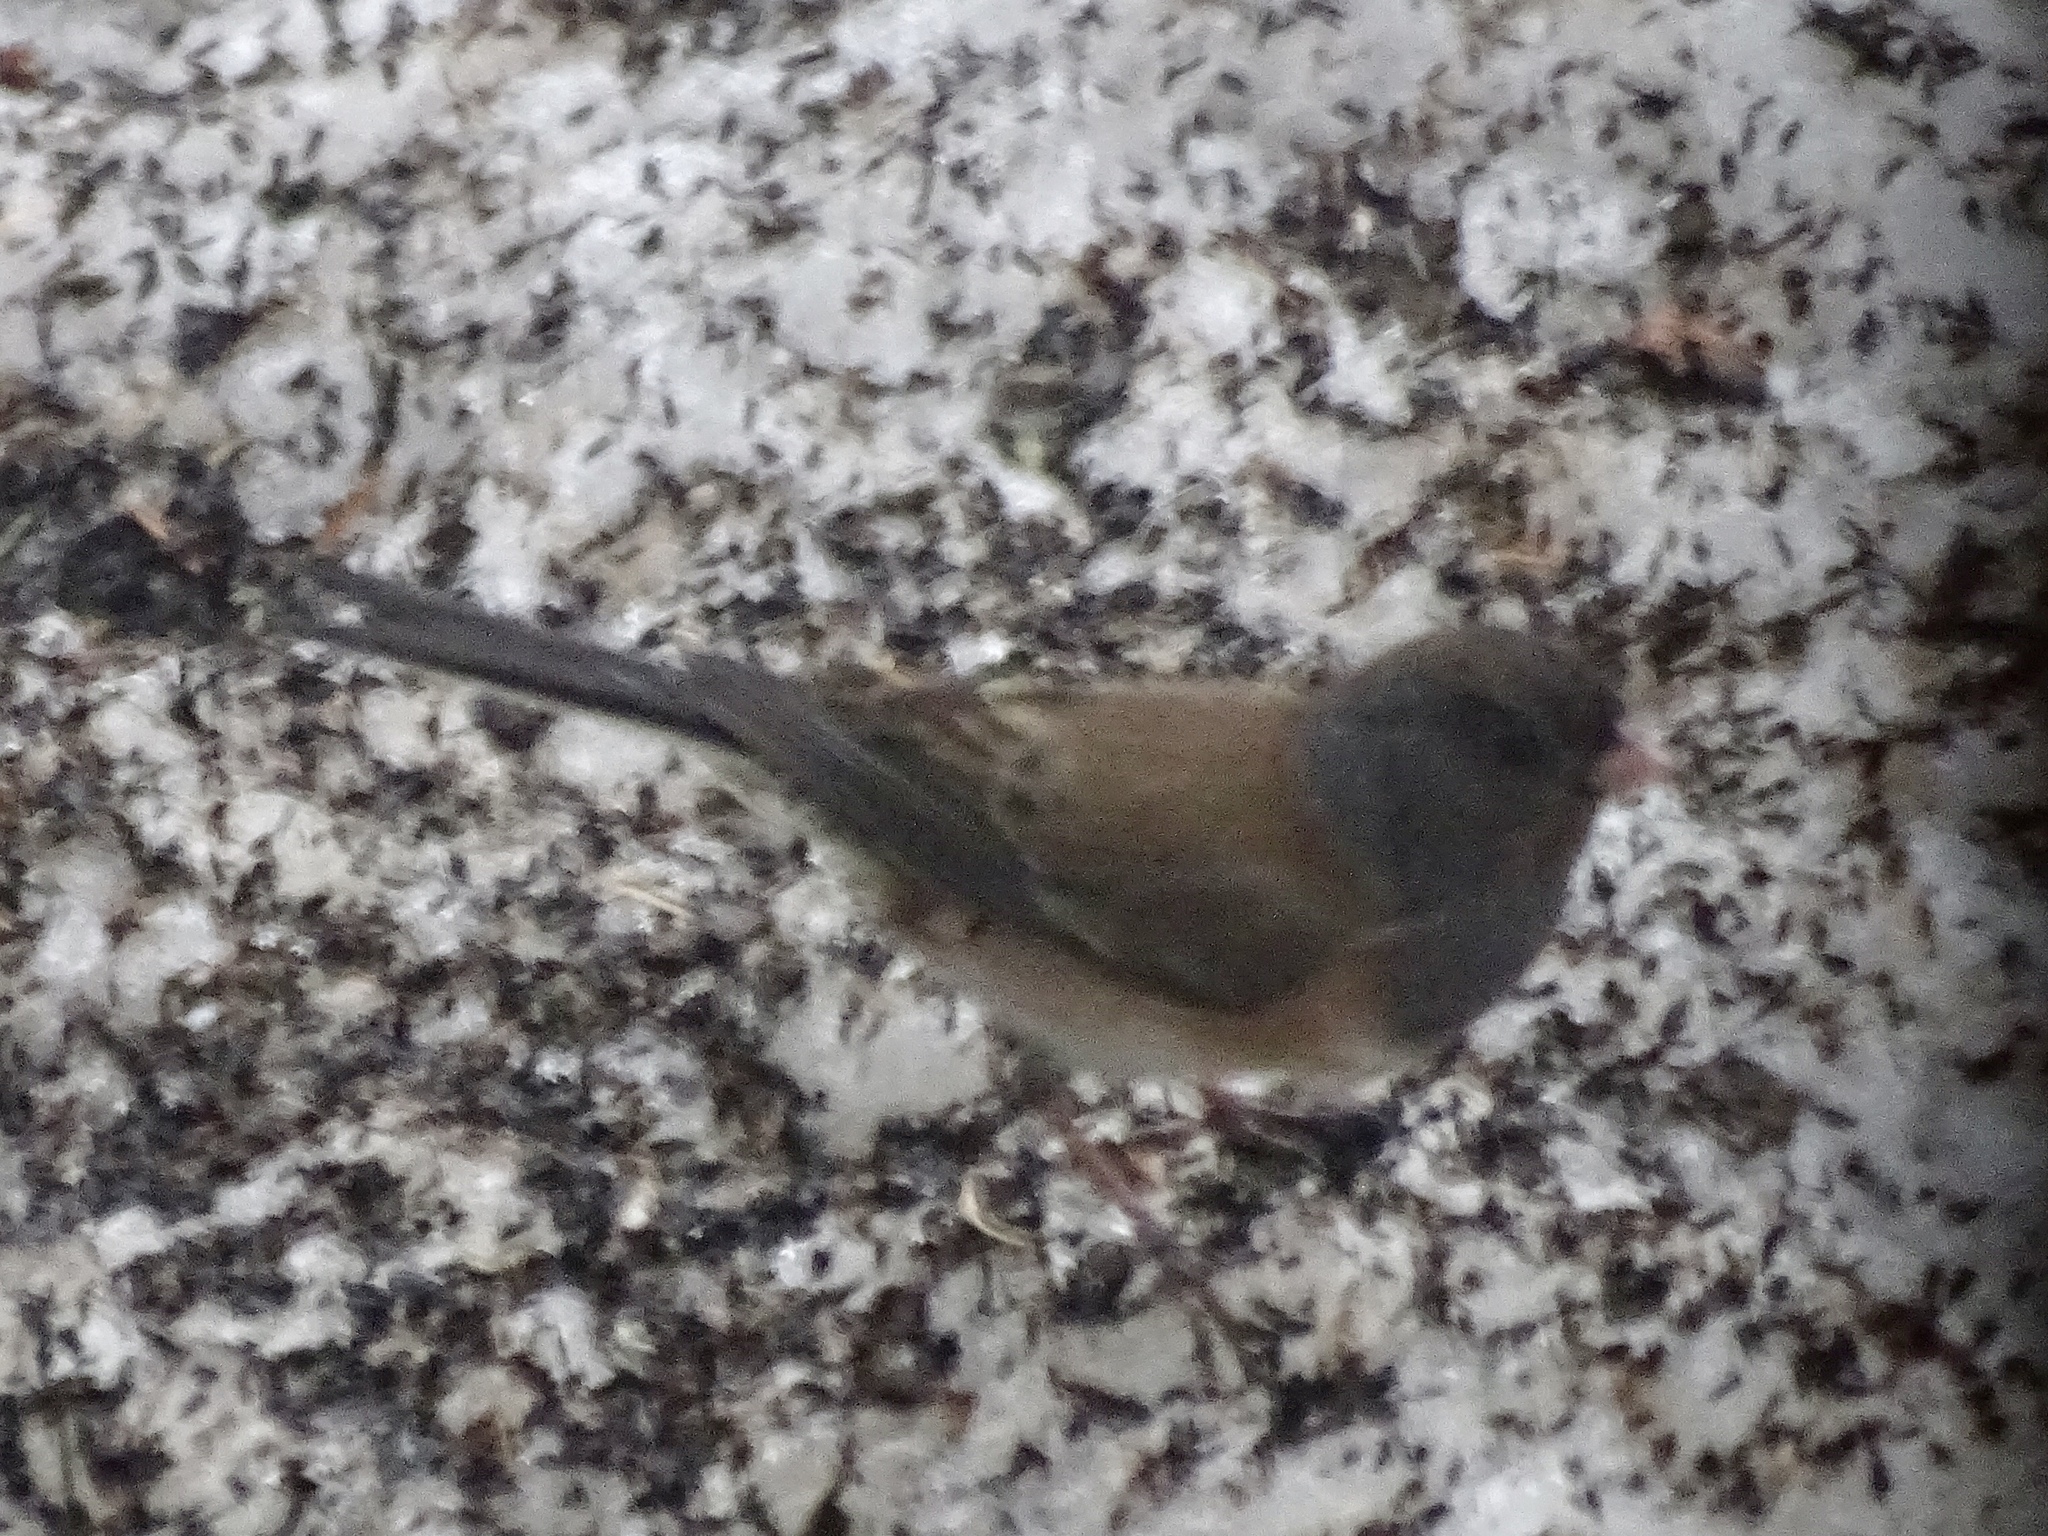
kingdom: Animalia
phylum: Chordata
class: Aves
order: Passeriformes
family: Passerellidae
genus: Junco
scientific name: Junco hyemalis
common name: Dark-eyed junco
